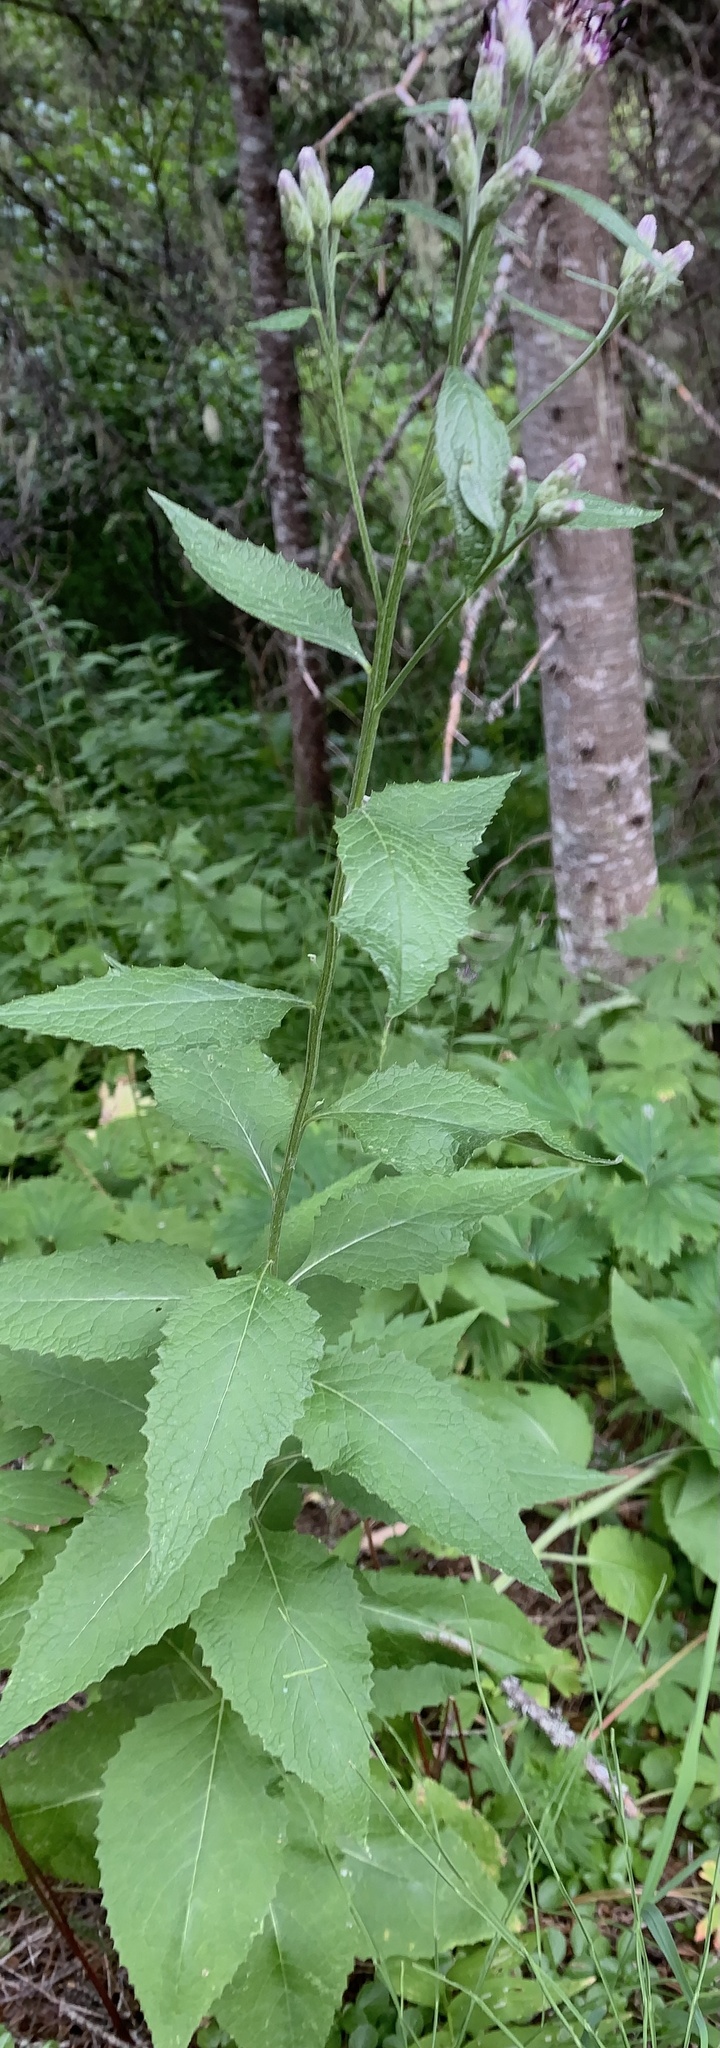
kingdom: Plantae
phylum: Tracheophyta
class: Magnoliopsida
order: Asterales
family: Asteraceae
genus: Saussurea
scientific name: Saussurea americana
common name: American saw-wort
